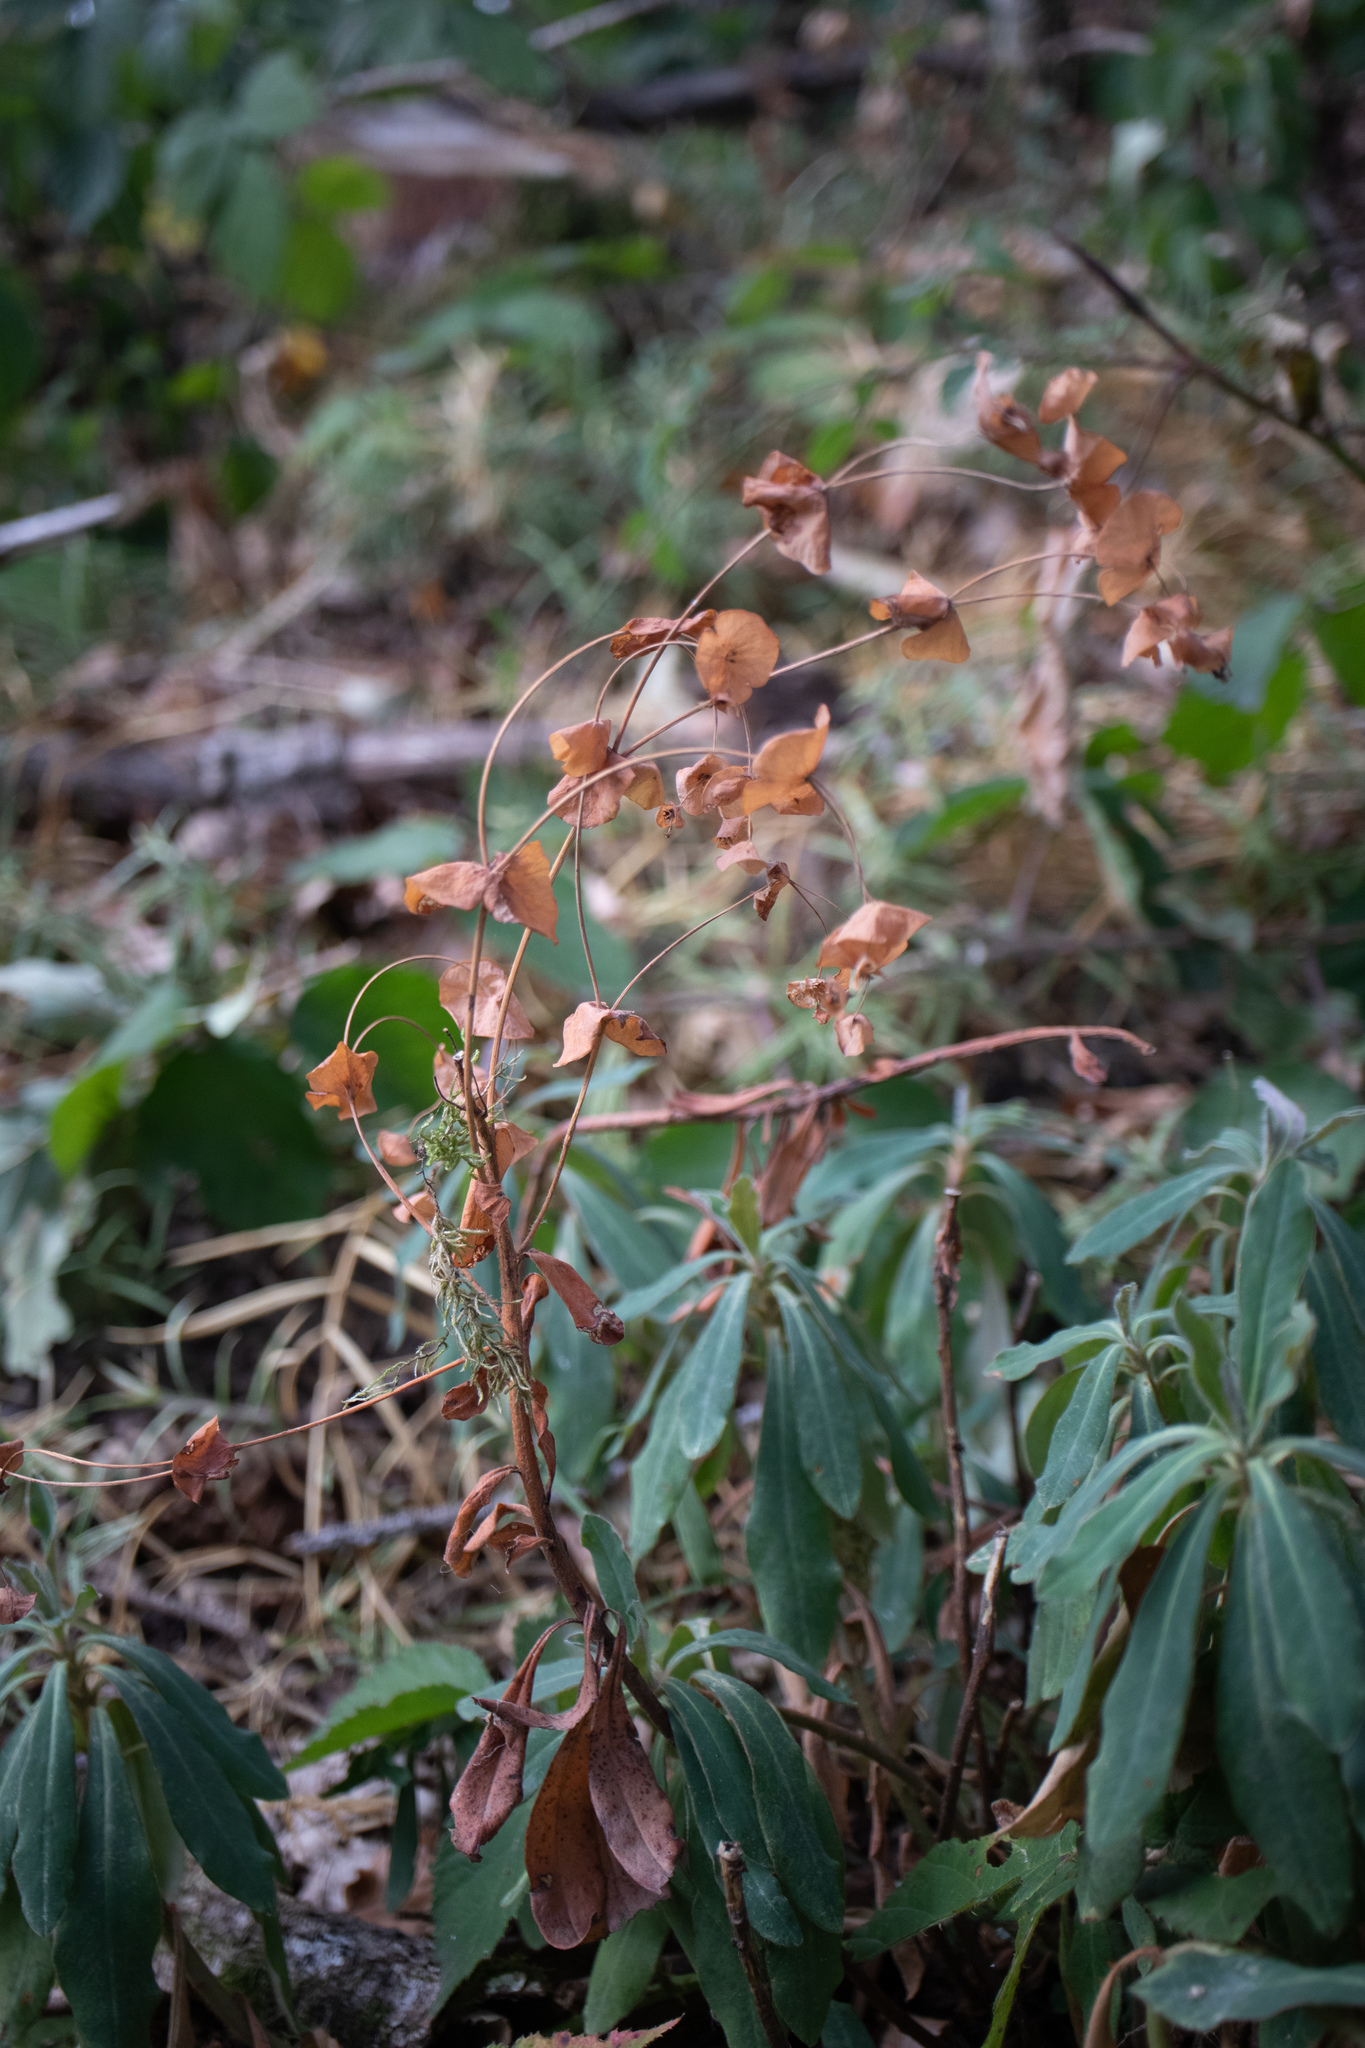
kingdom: Plantae
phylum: Tracheophyta
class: Magnoliopsida
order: Malpighiales
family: Euphorbiaceae
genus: Euphorbia
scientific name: Euphorbia amygdaloides
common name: Wood spurge
